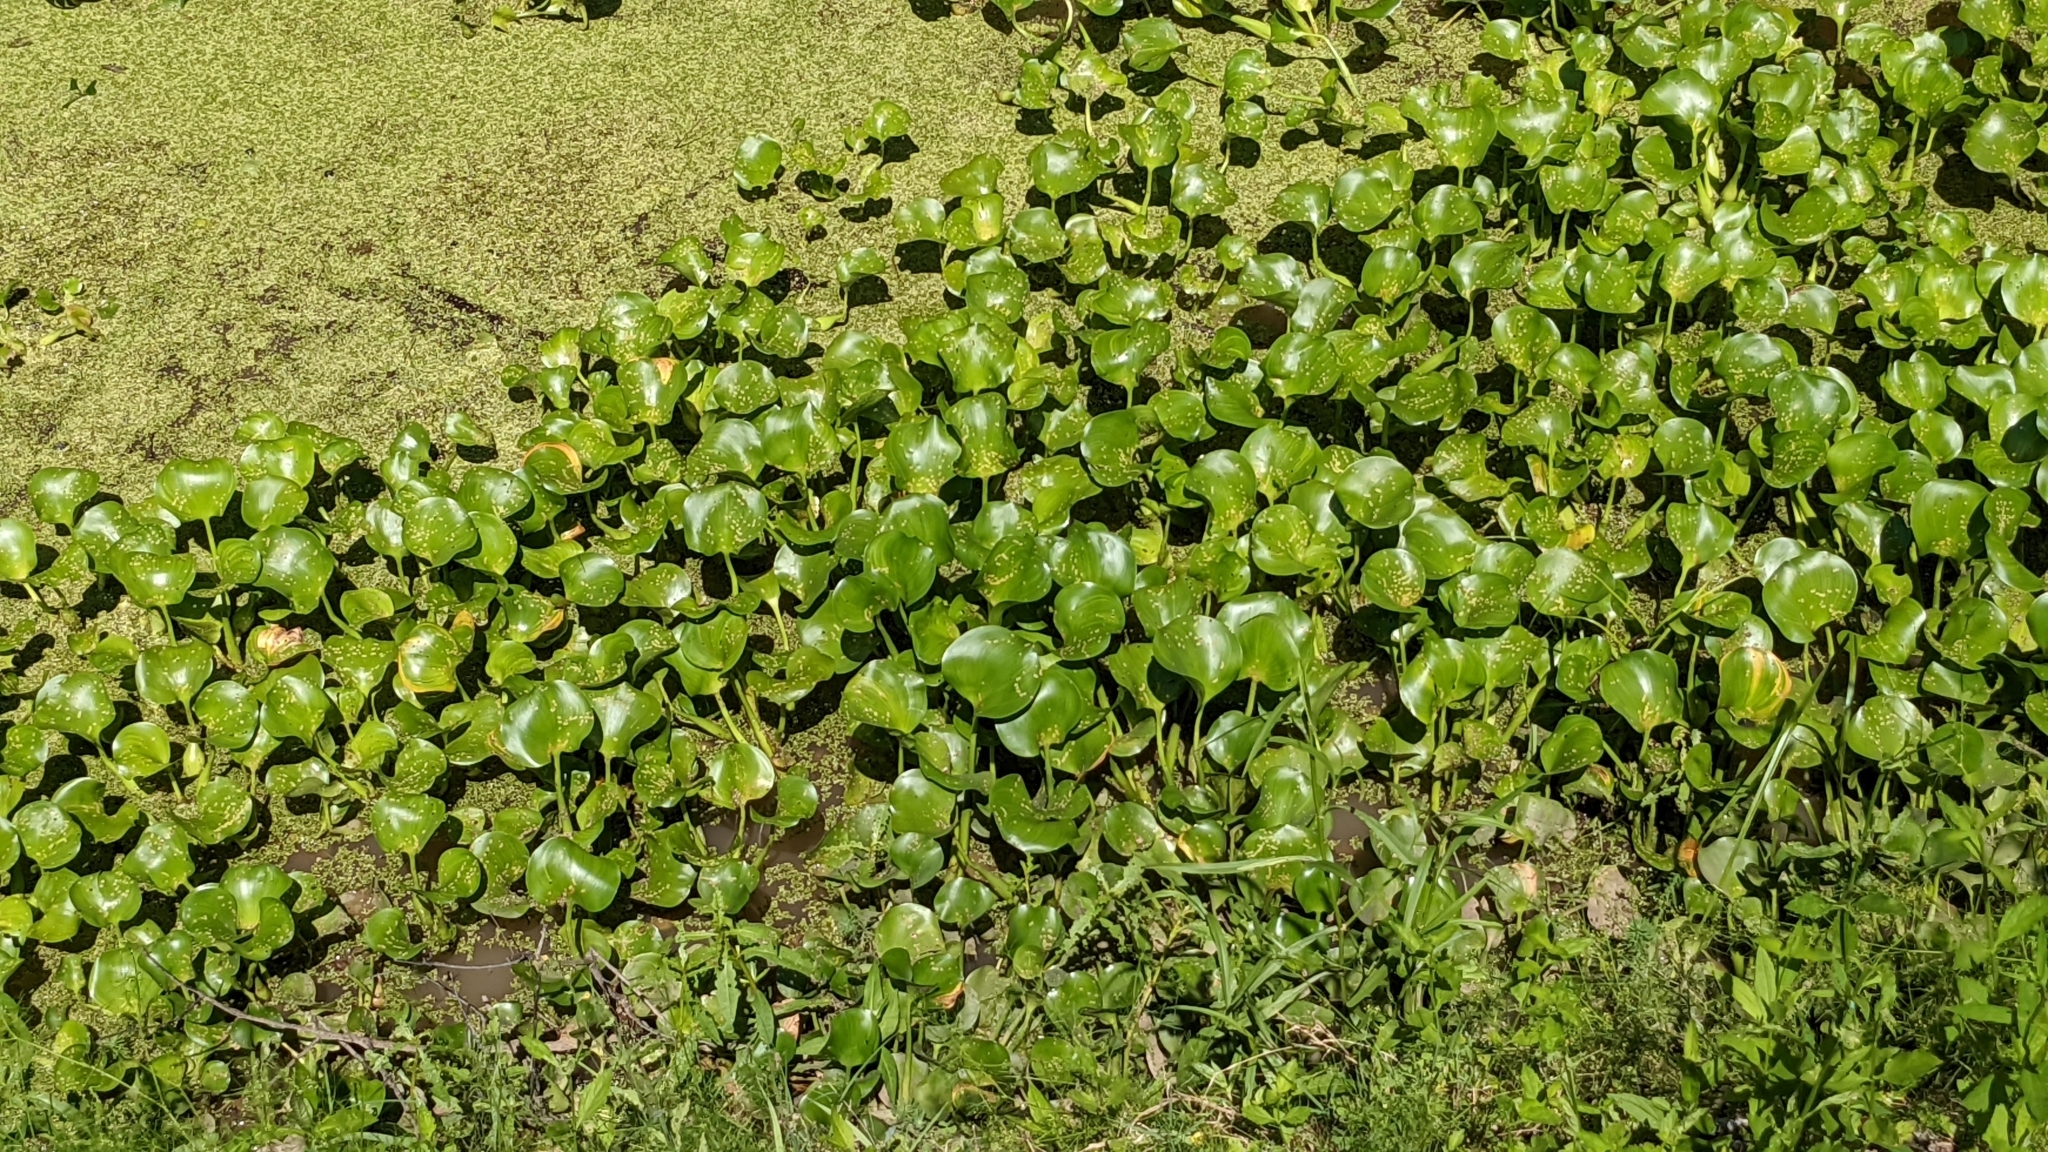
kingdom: Plantae
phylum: Tracheophyta
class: Liliopsida
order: Commelinales
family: Pontederiaceae
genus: Pontederia
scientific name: Pontederia crassipes
